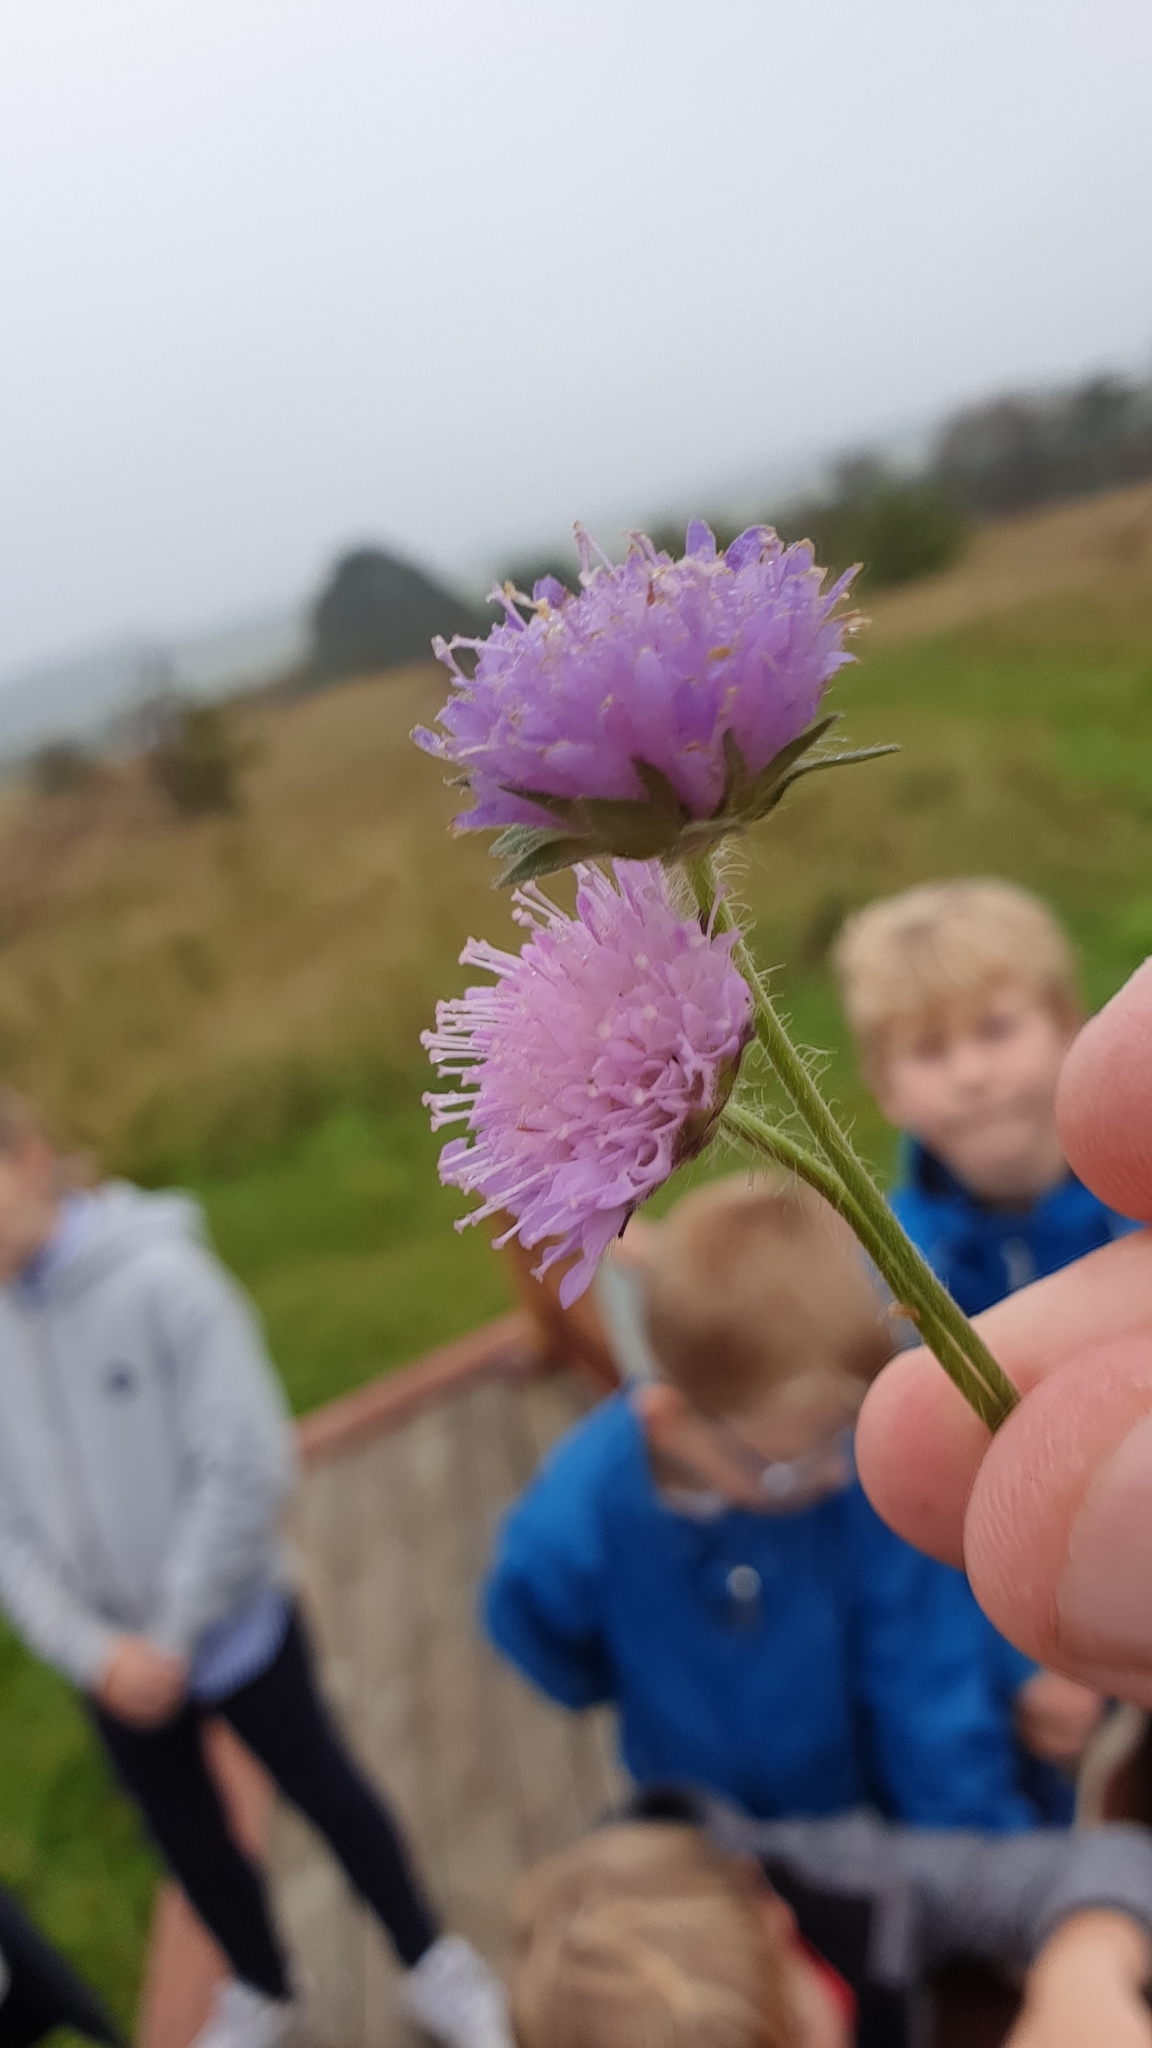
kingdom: Plantae
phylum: Tracheophyta
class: Magnoliopsida
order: Dipsacales
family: Caprifoliaceae
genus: Knautia
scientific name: Knautia arvensis
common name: Field scabiosa
